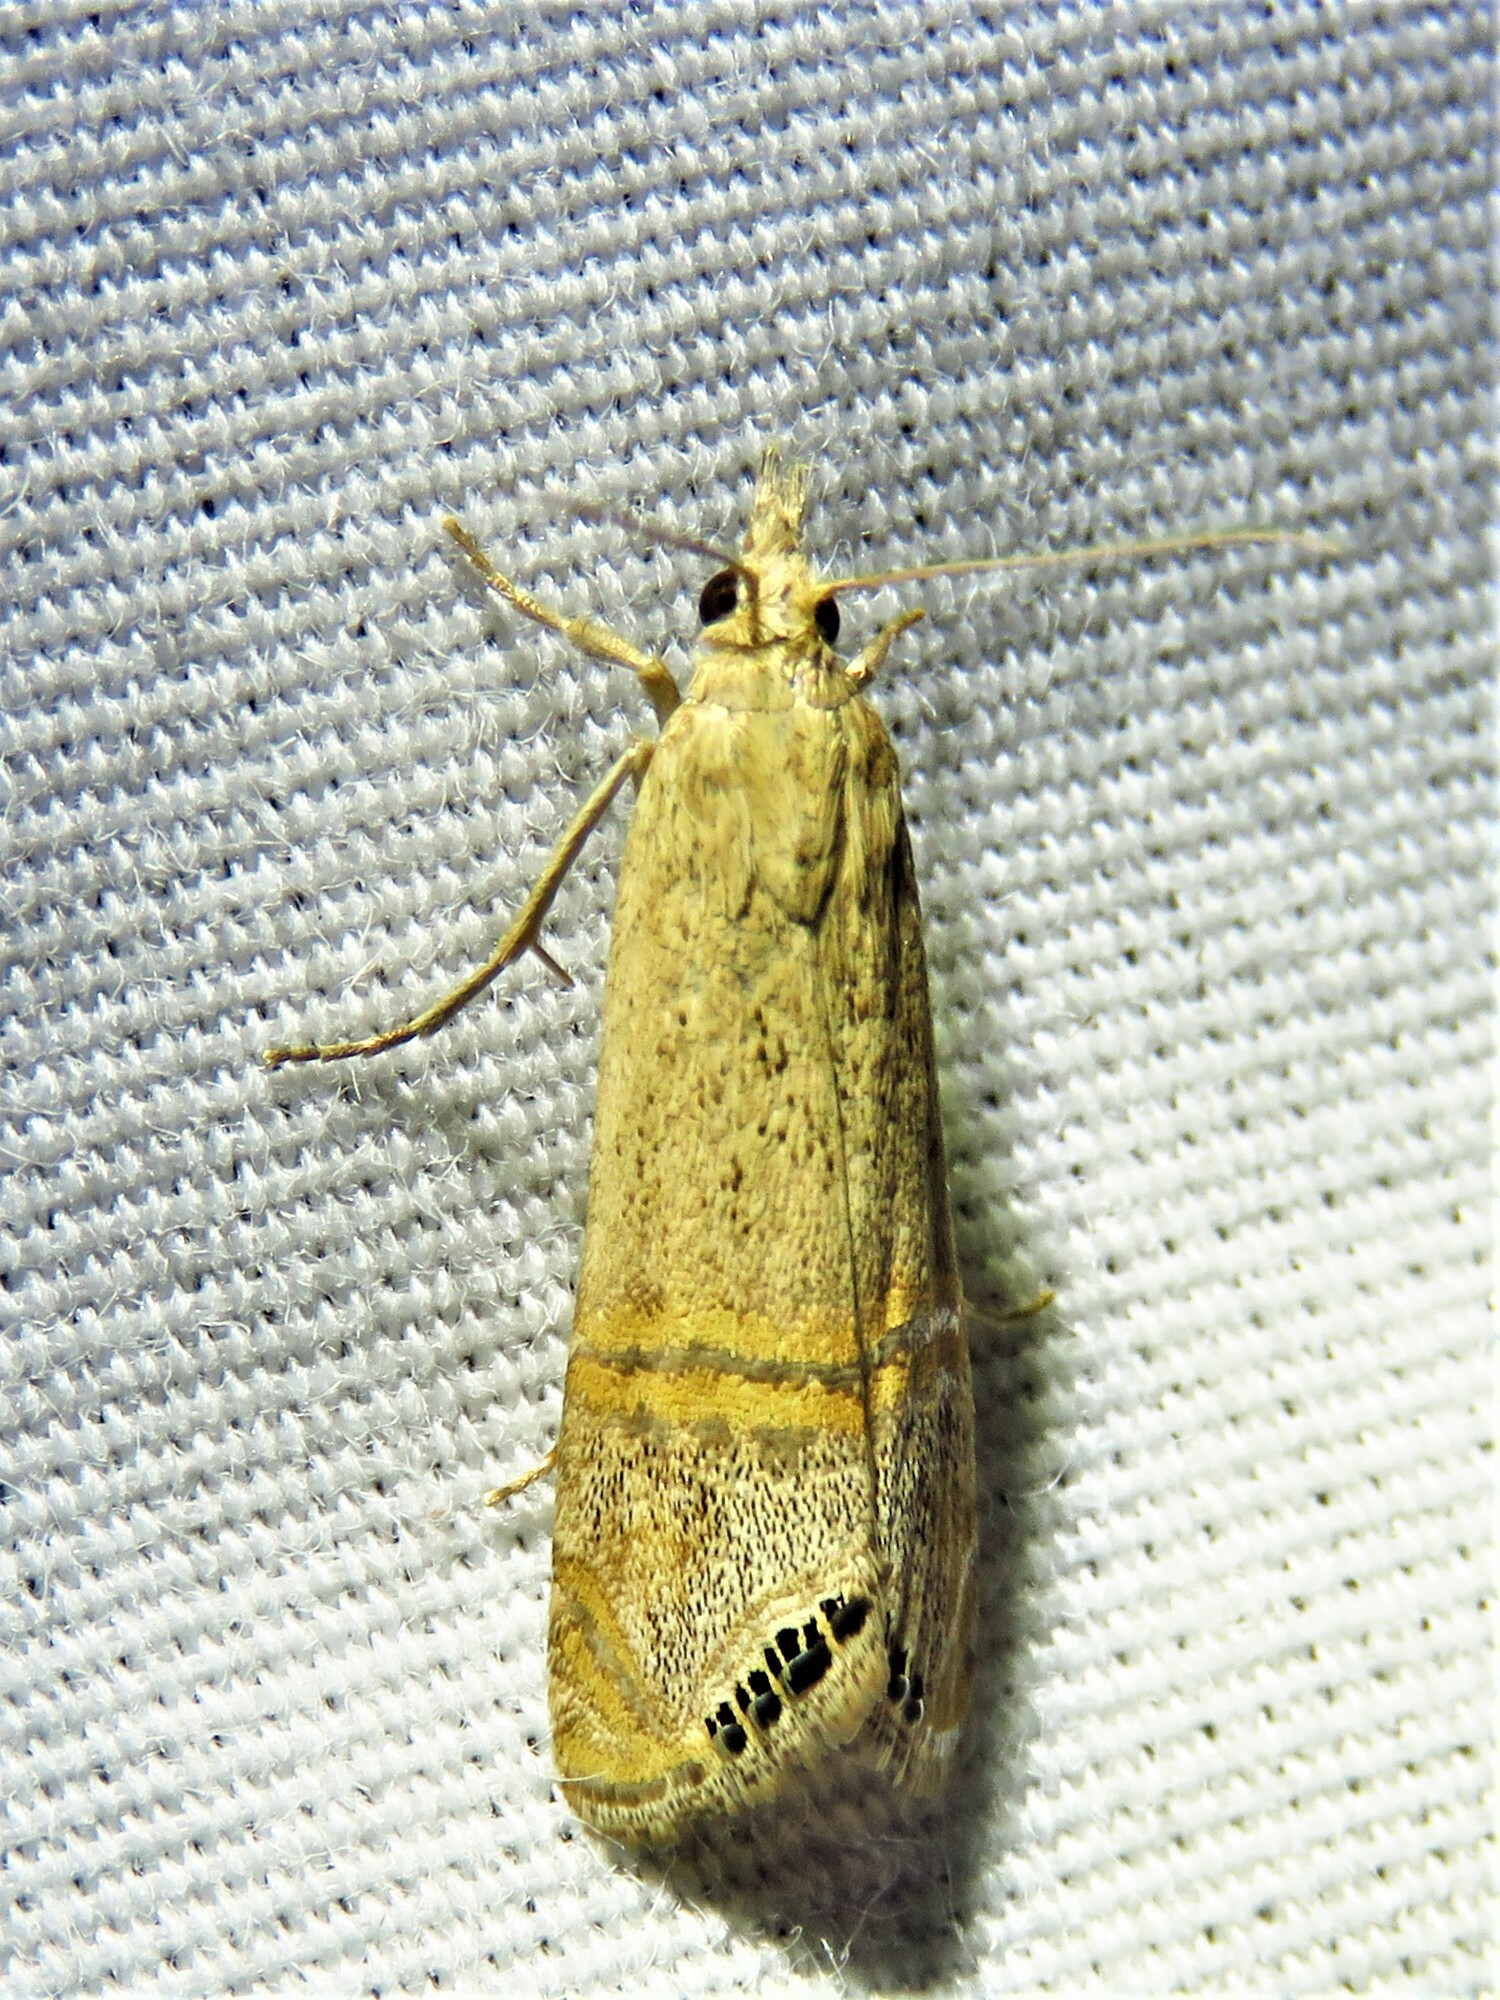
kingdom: Animalia
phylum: Arthropoda
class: Insecta
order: Lepidoptera
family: Crambidae
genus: Euchromius
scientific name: Euchromius ocellea
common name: Necklace veneer moth
